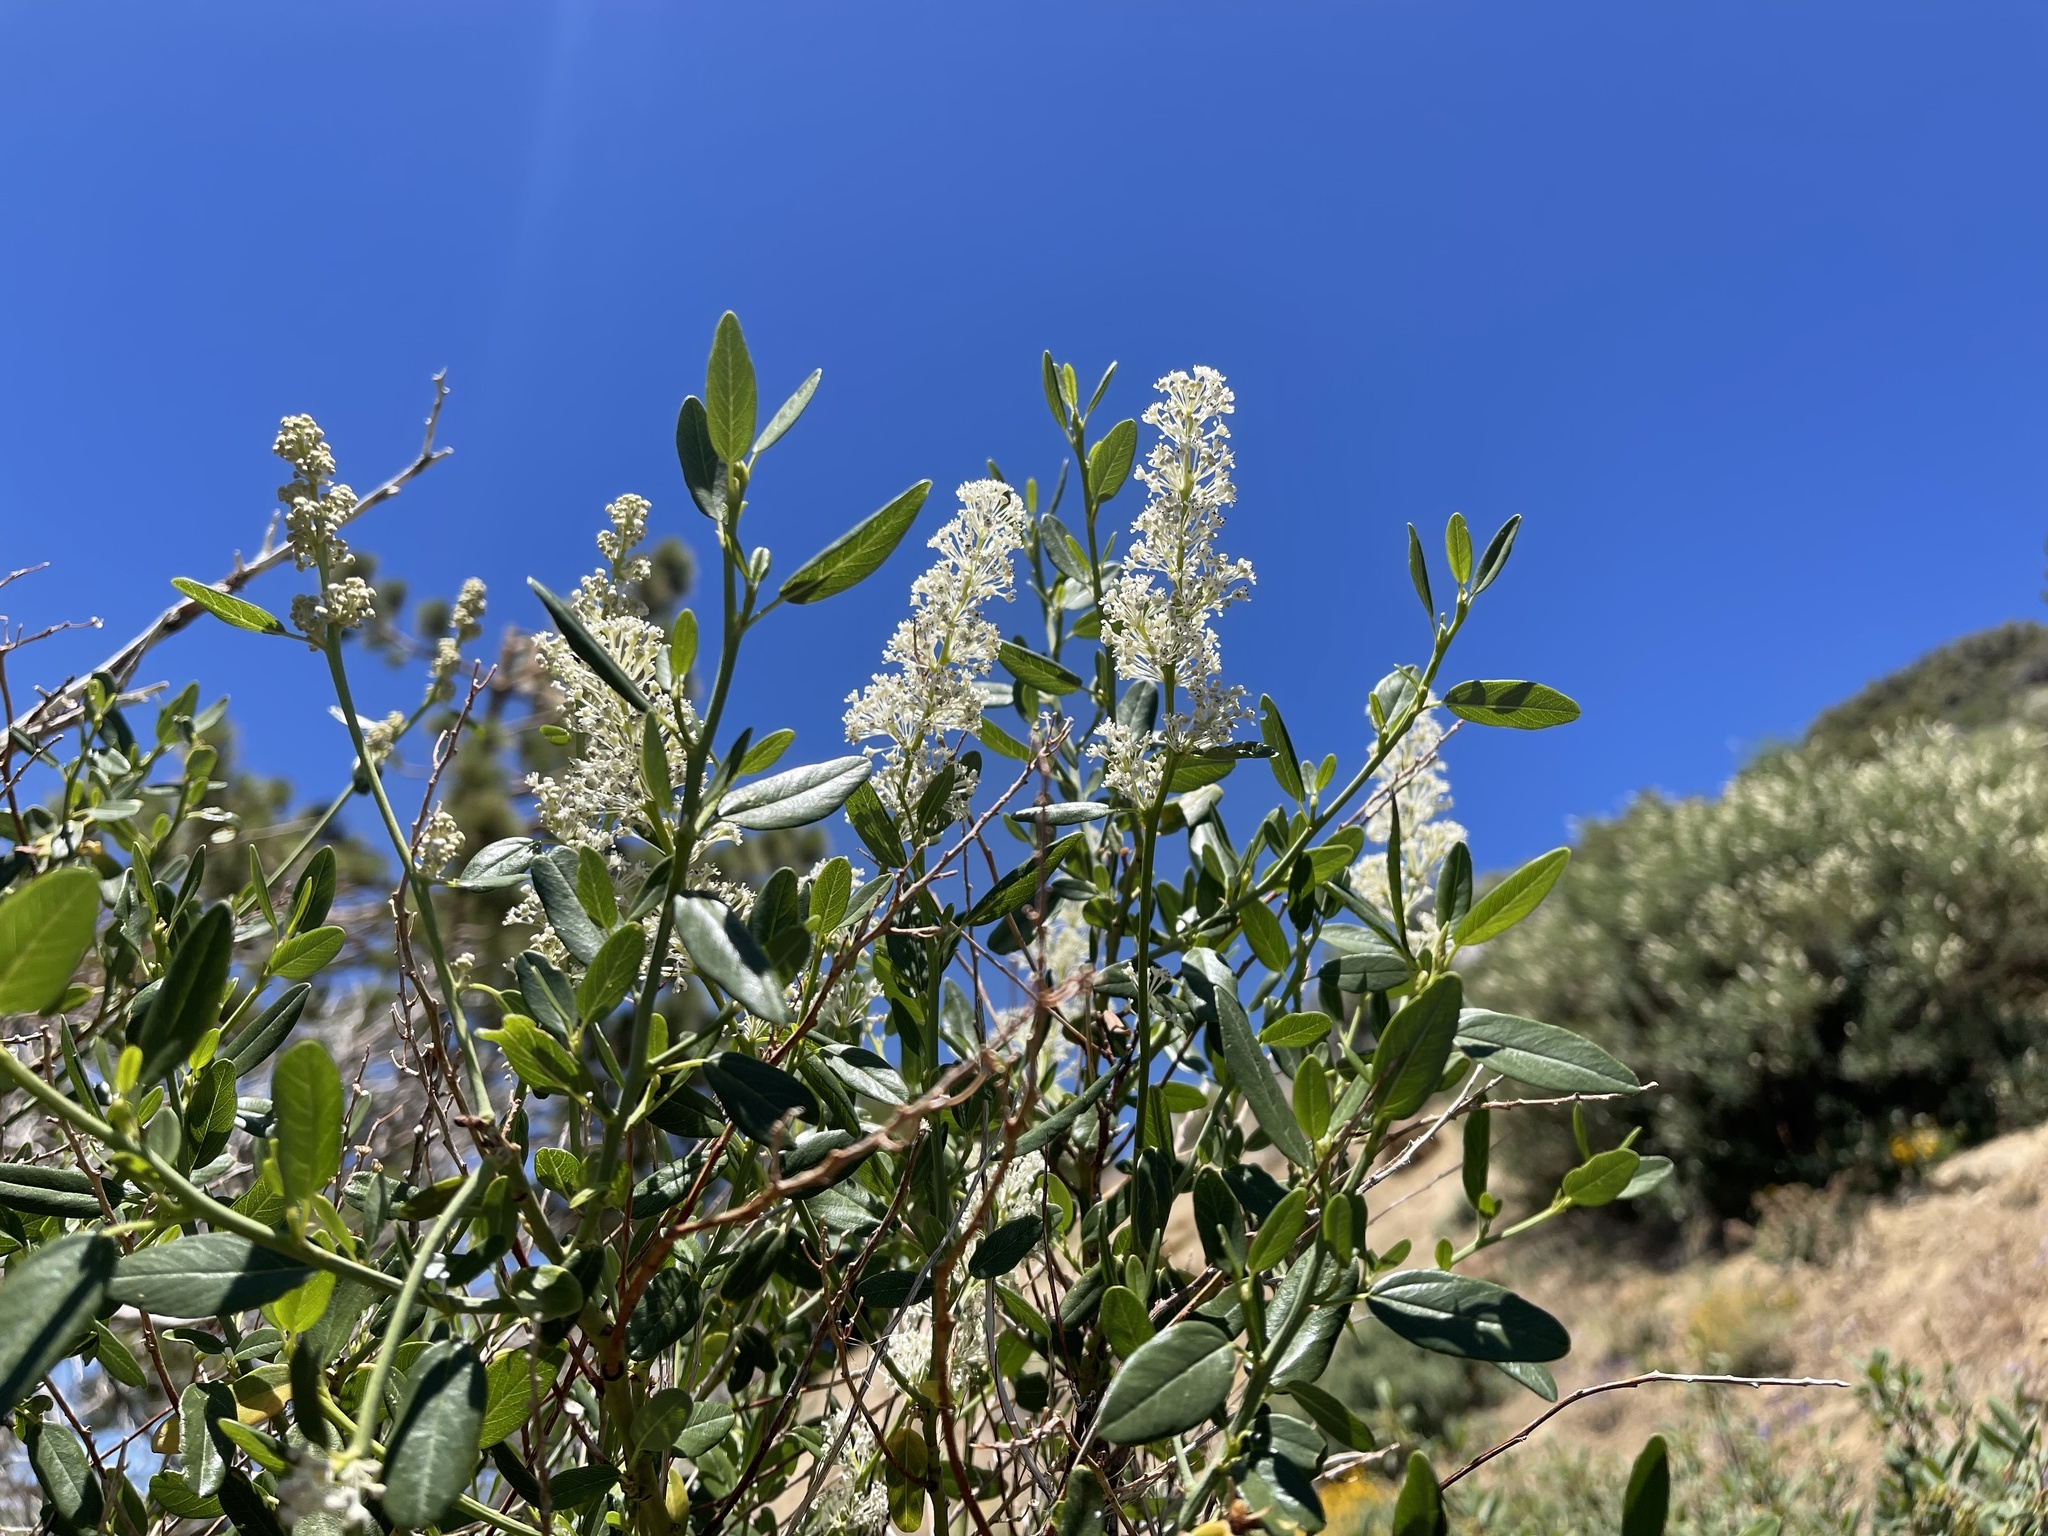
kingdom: Plantae
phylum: Tracheophyta
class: Magnoliopsida
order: Rosales
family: Rhamnaceae
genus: Ceanothus
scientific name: Ceanothus palmeri
